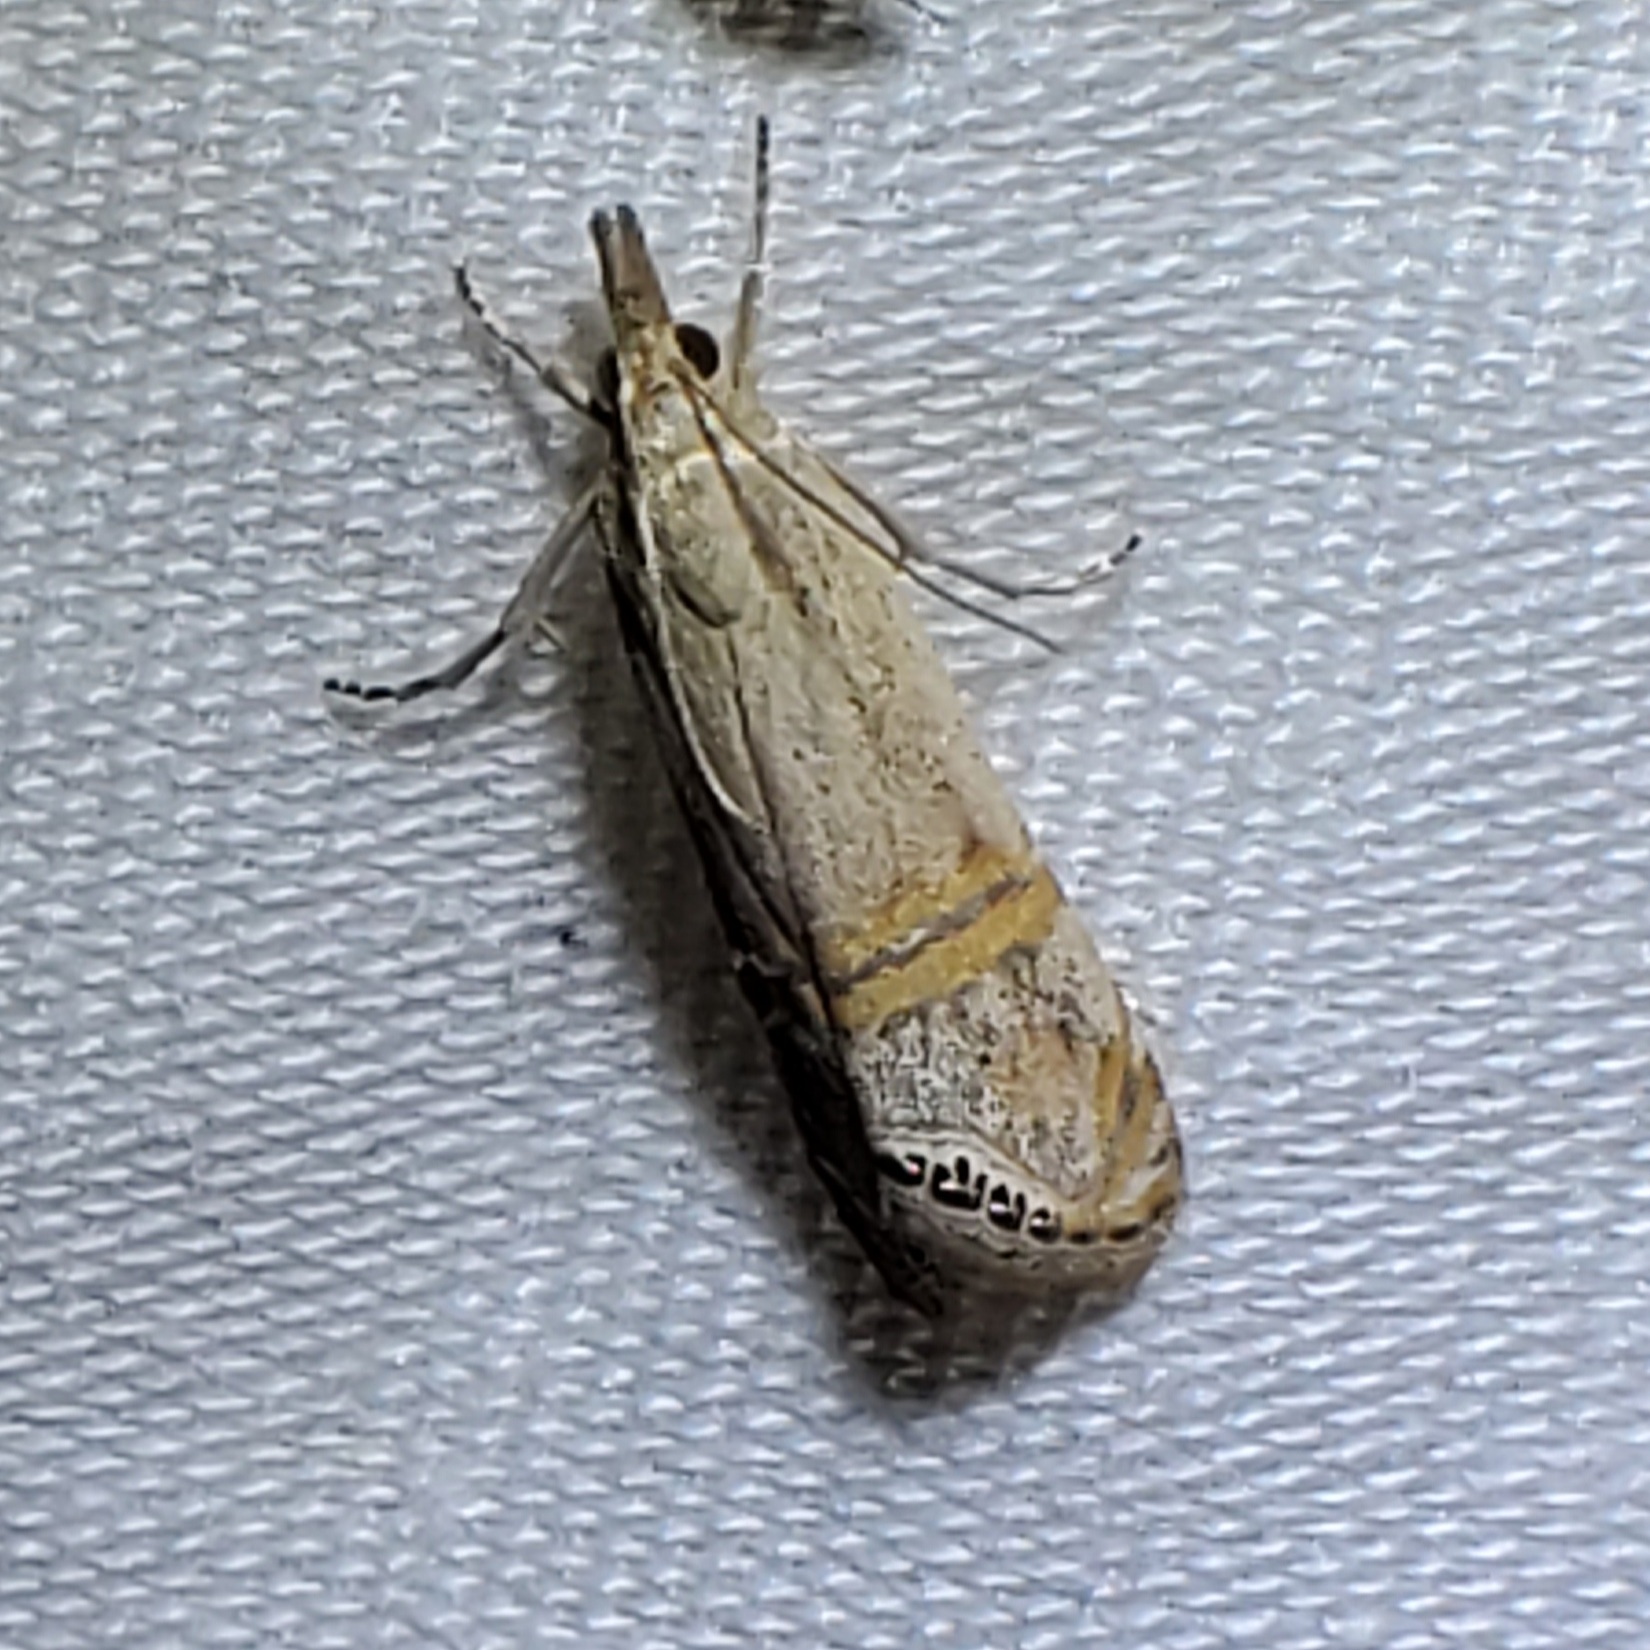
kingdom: Animalia
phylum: Arthropoda
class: Insecta
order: Lepidoptera
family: Crambidae
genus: Euchromius
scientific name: Euchromius ocellea
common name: Necklace veneer moth
